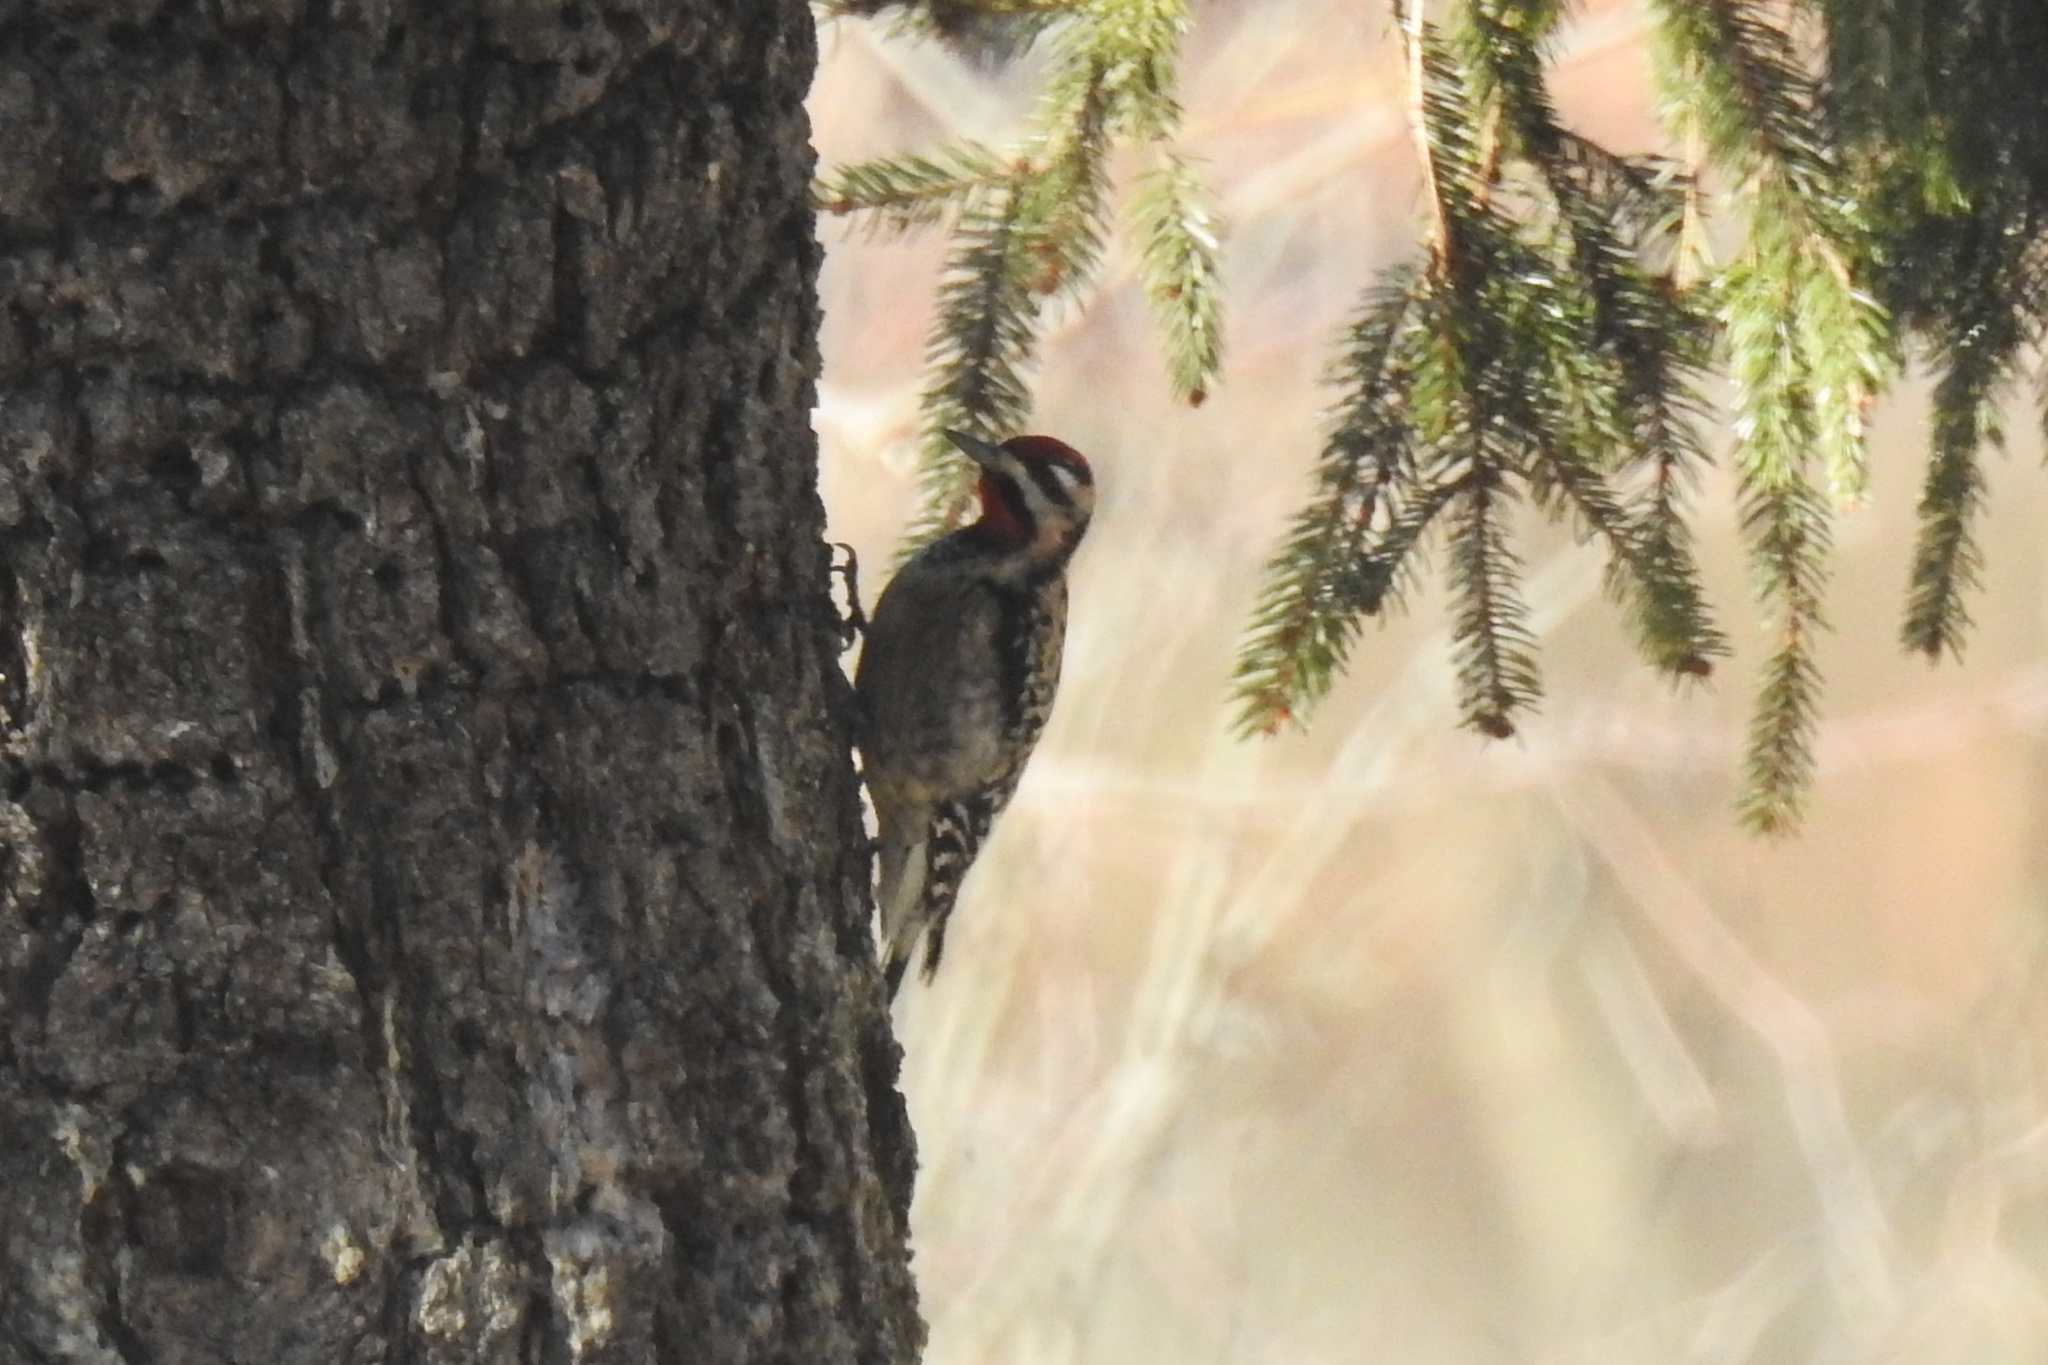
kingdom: Animalia
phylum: Chordata
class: Aves
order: Piciformes
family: Picidae
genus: Sphyrapicus
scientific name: Sphyrapicus varius
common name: Yellow-bellied sapsucker
